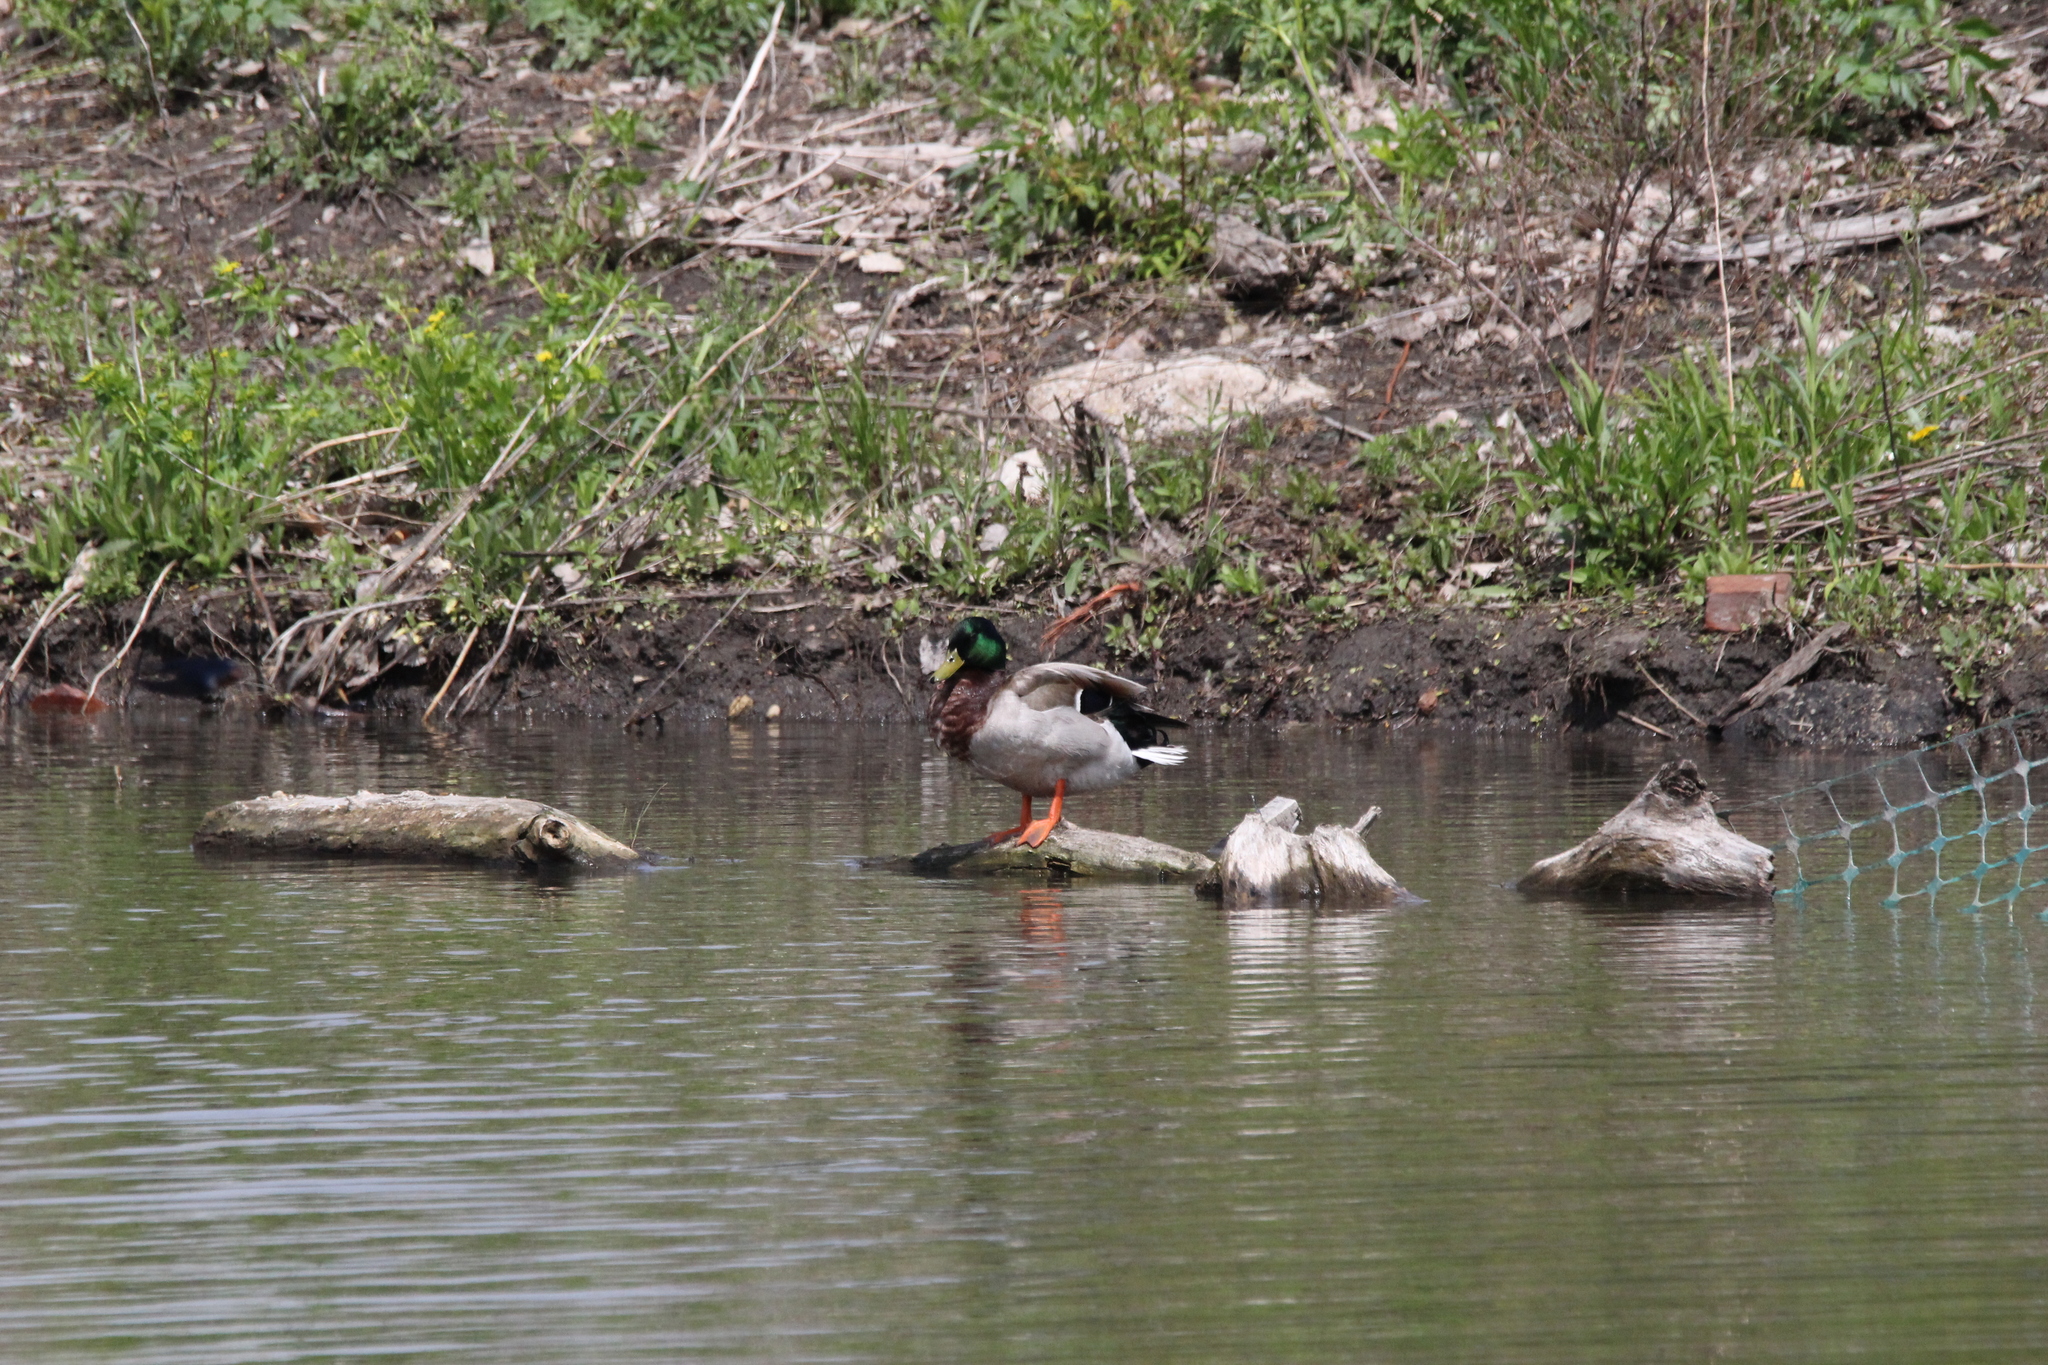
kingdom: Animalia
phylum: Chordata
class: Aves
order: Anseriformes
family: Anatidae
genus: Anas
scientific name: Anas platyrhynchos
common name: Mallard
